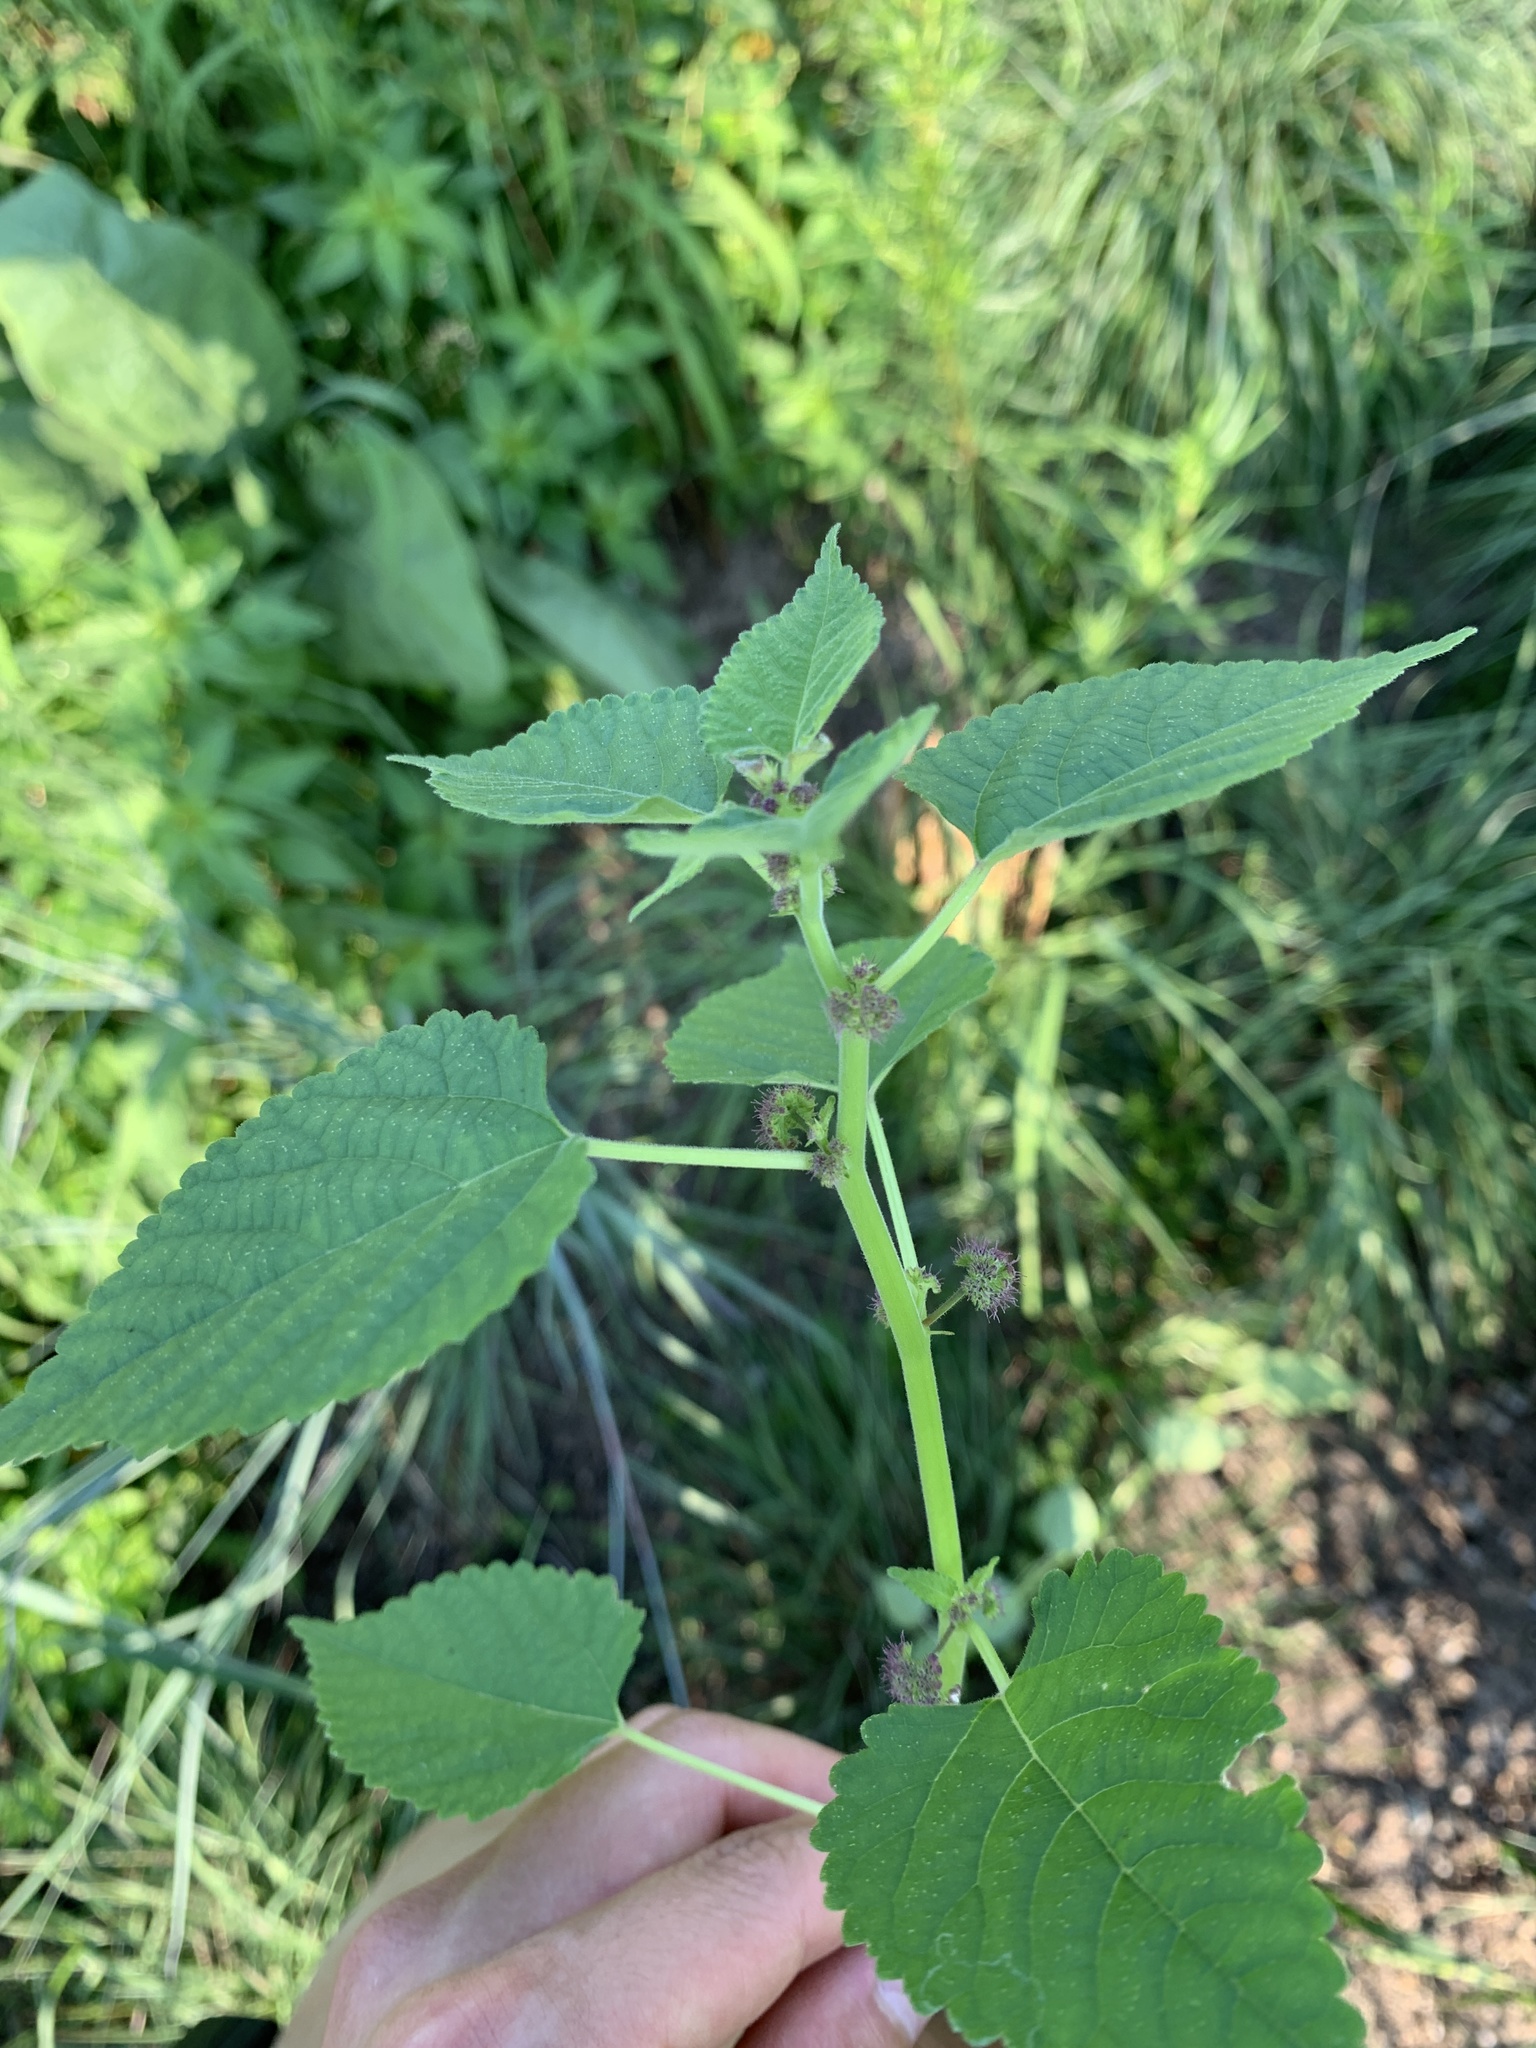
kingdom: Plantae
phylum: Tracheophyta
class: Magnoliopsida
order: Rosales
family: Moraceae
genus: Fatoua
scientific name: Fatoua villosa
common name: Hairy crabweed
